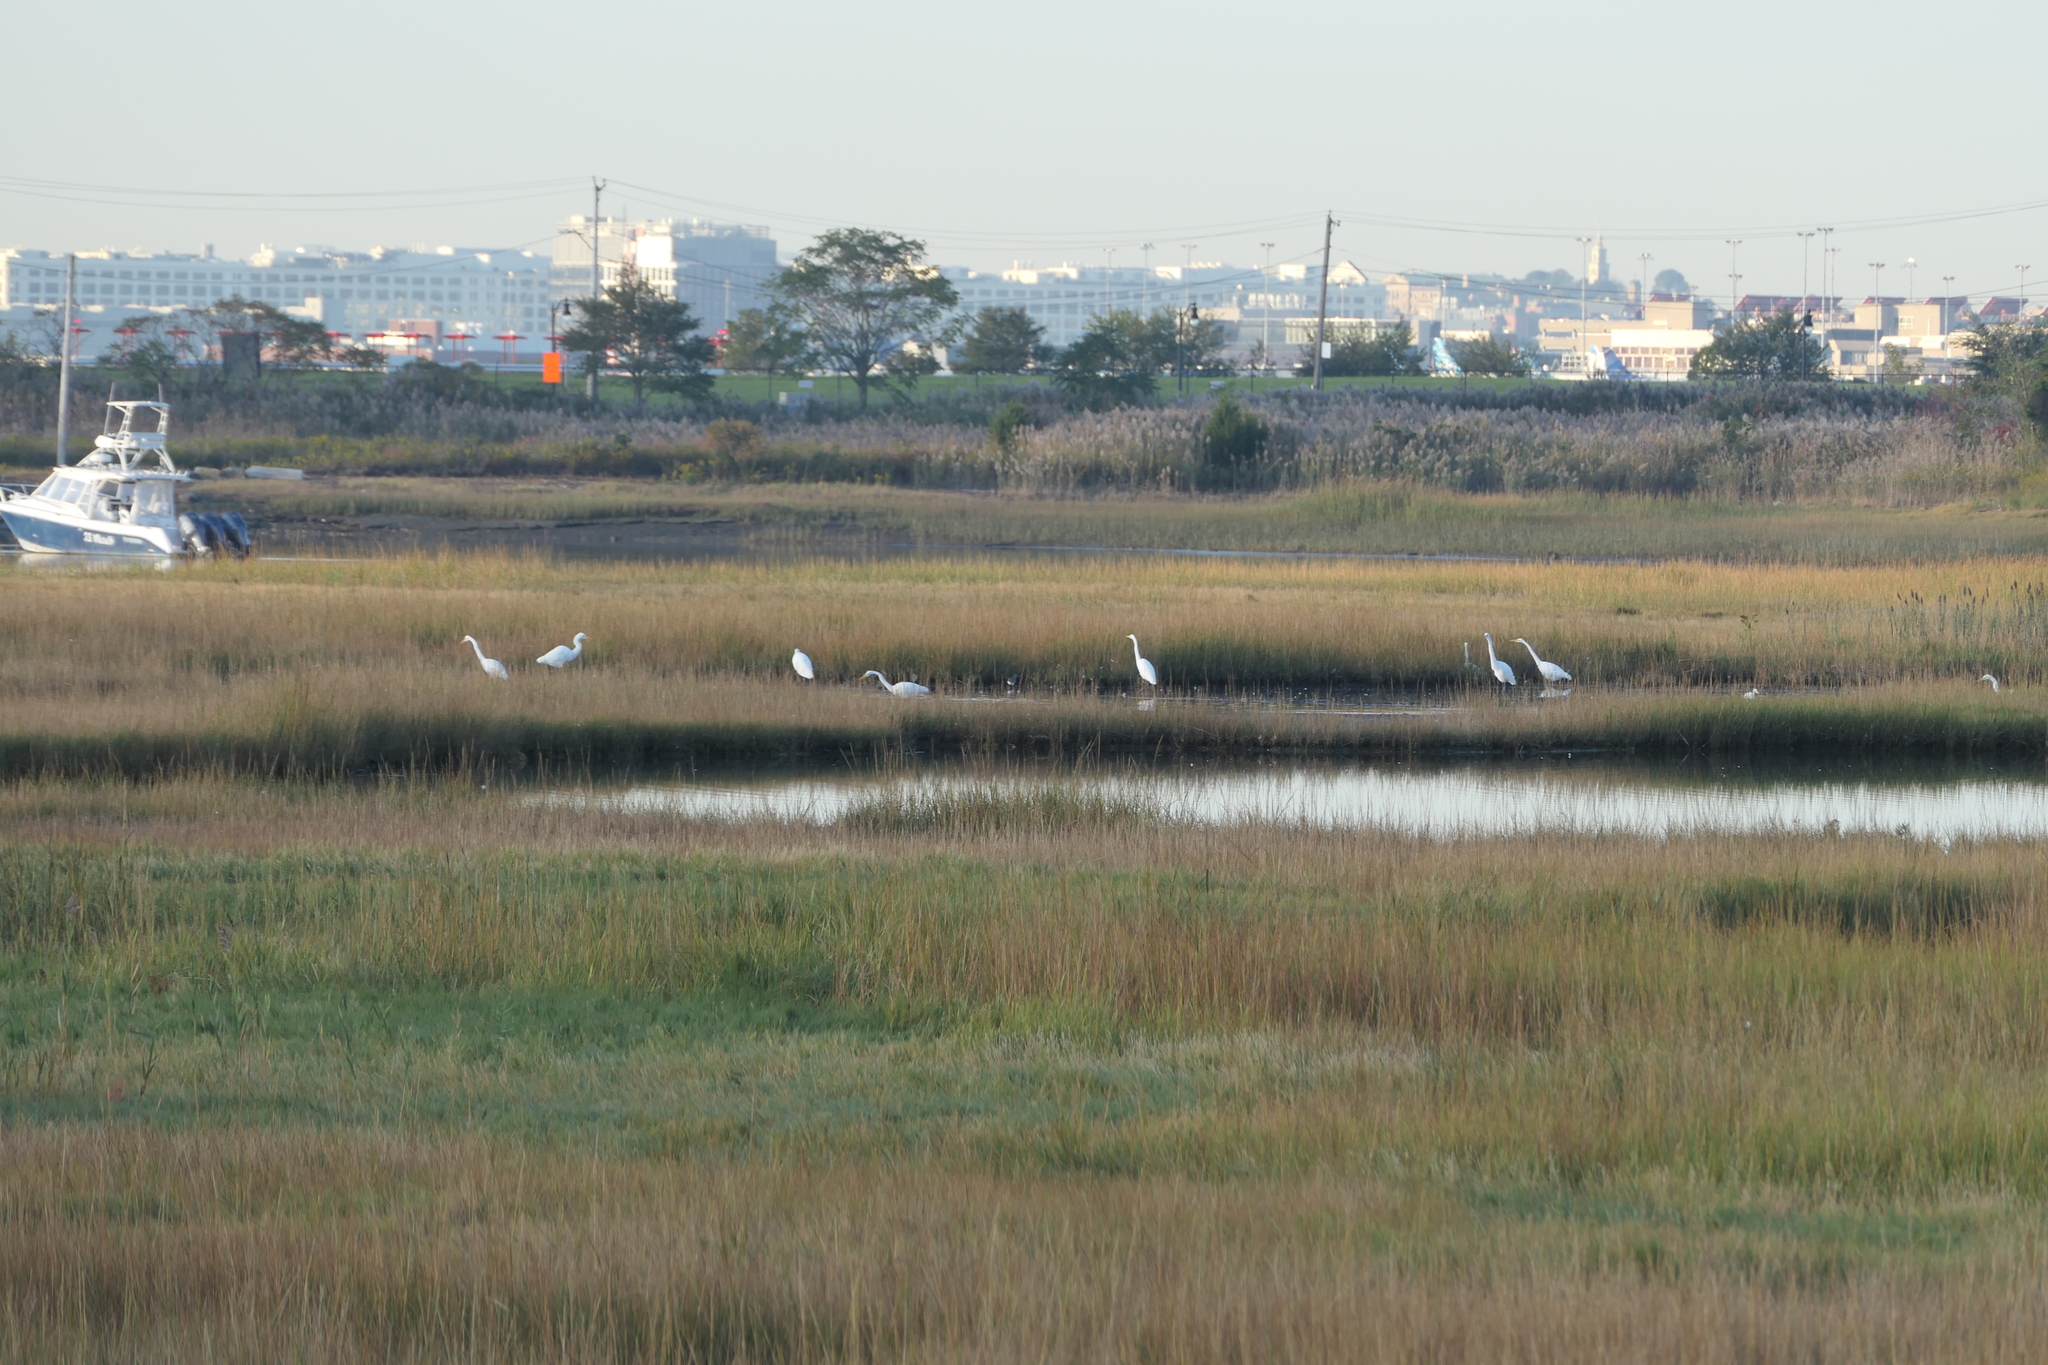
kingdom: Animalia
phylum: Chordata
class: Aves
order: Pelecaniformes
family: Ardeidae
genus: Ardea
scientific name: Ardea alba
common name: Great egret
